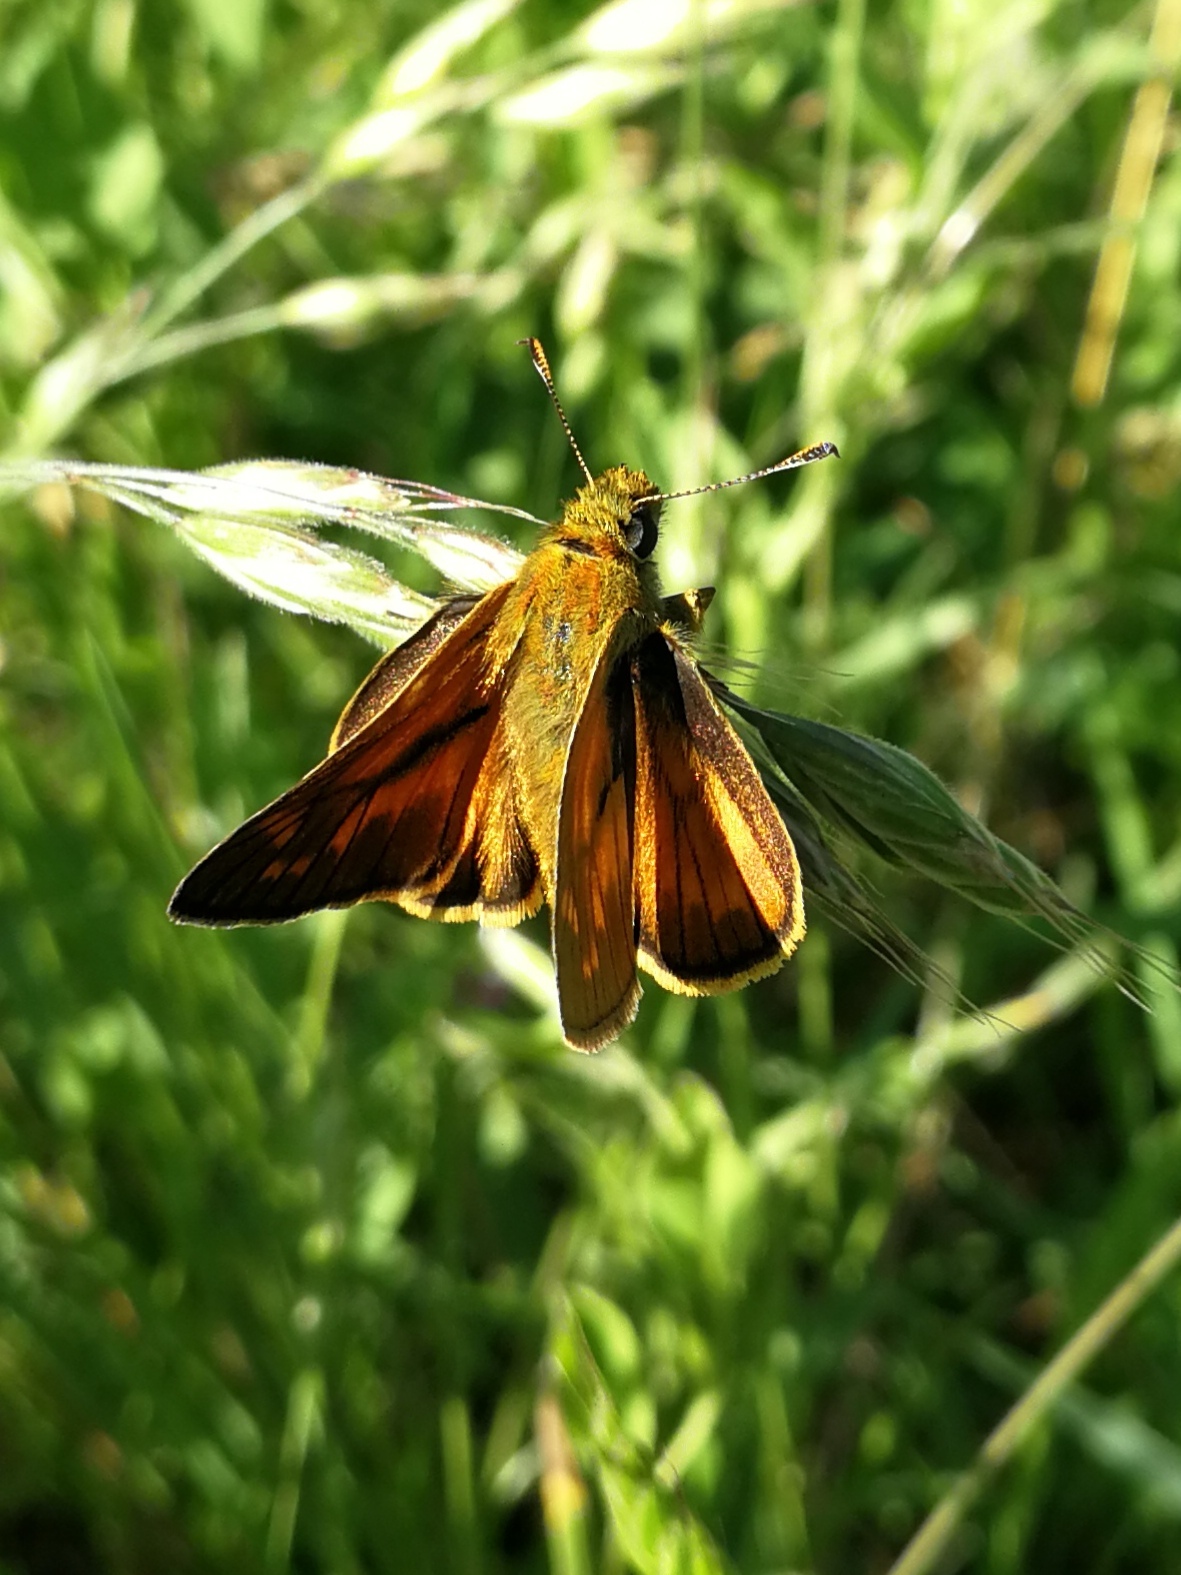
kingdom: Animalia
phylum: Arthropoda
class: Insecta
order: Lepidoptera
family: Hesperiidae
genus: Ochlodes
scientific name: Ochlodes venata
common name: Large skipper
